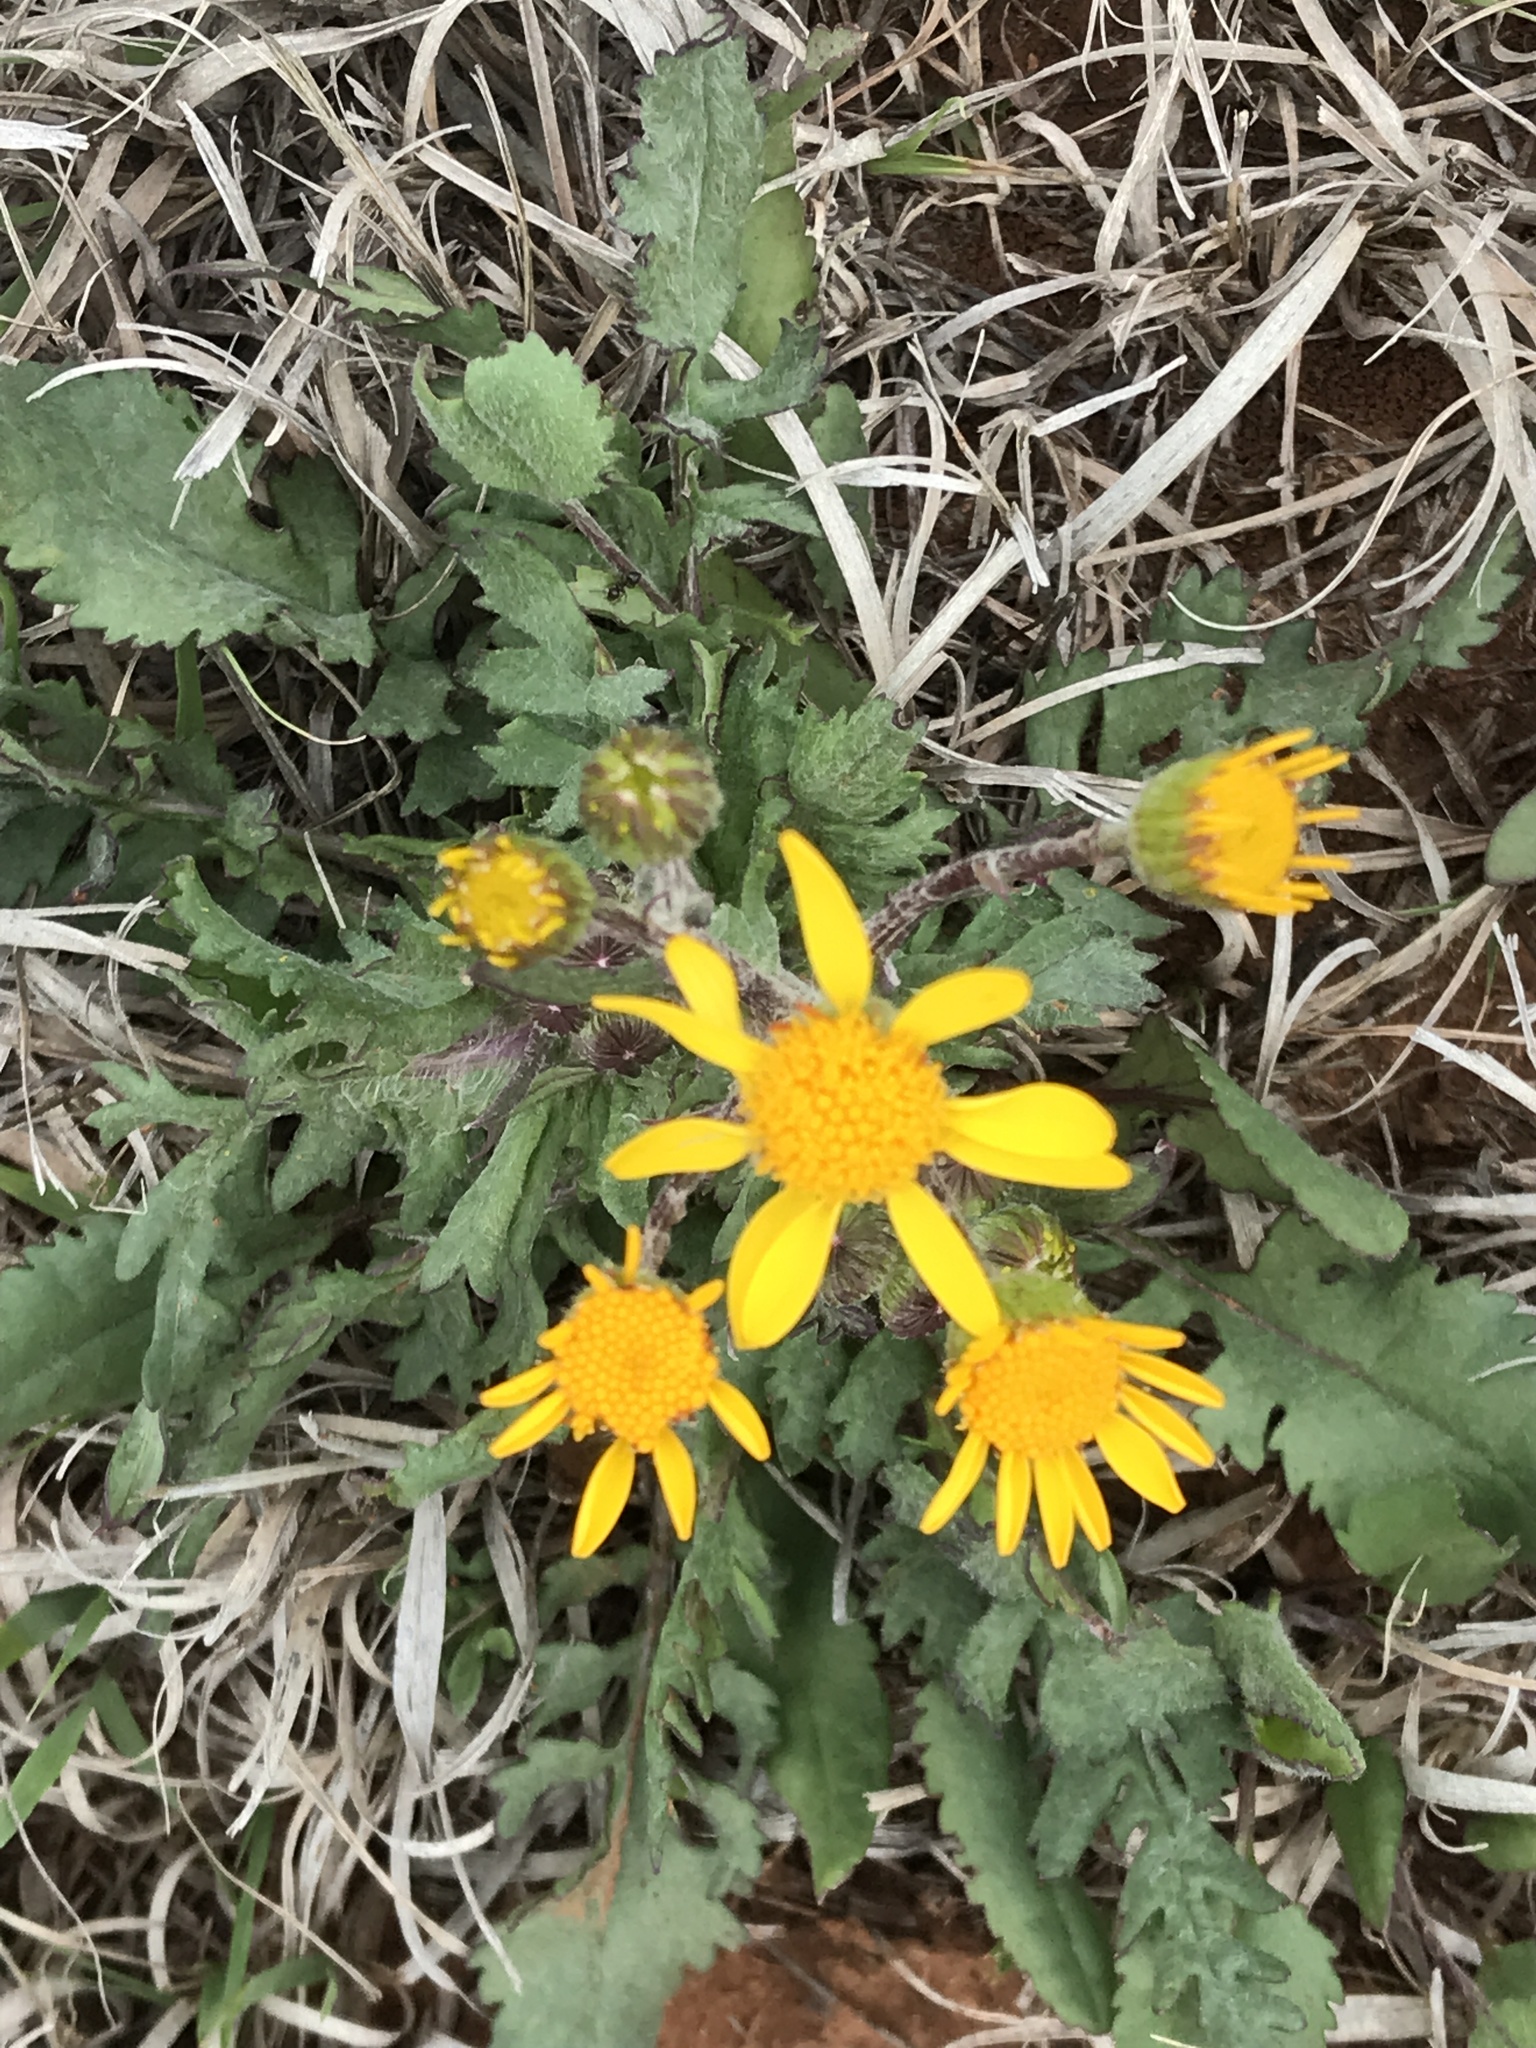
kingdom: Plantae
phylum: Tracheophyta
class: Magnoliopsida
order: Asterales
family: Asteraceae
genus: Packera
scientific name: Packera plattensis
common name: Prairie groundsel
